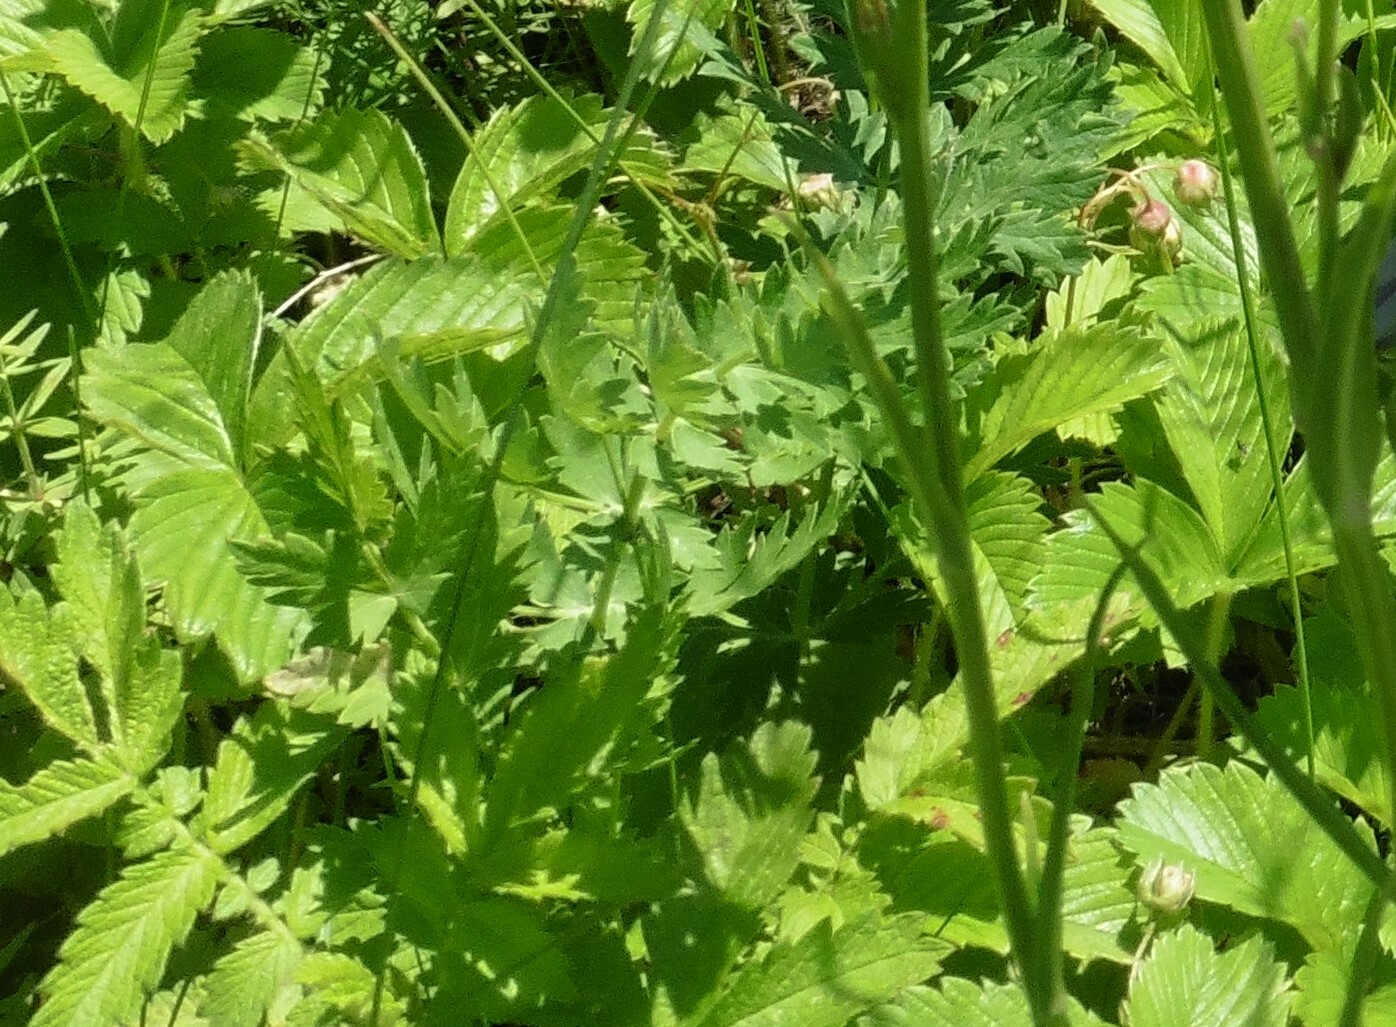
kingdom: Plantae
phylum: Tracheophyta
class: Magnoliopsida
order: Rosales
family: Rosaceae
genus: Fragaria
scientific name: Fragaria viridis
